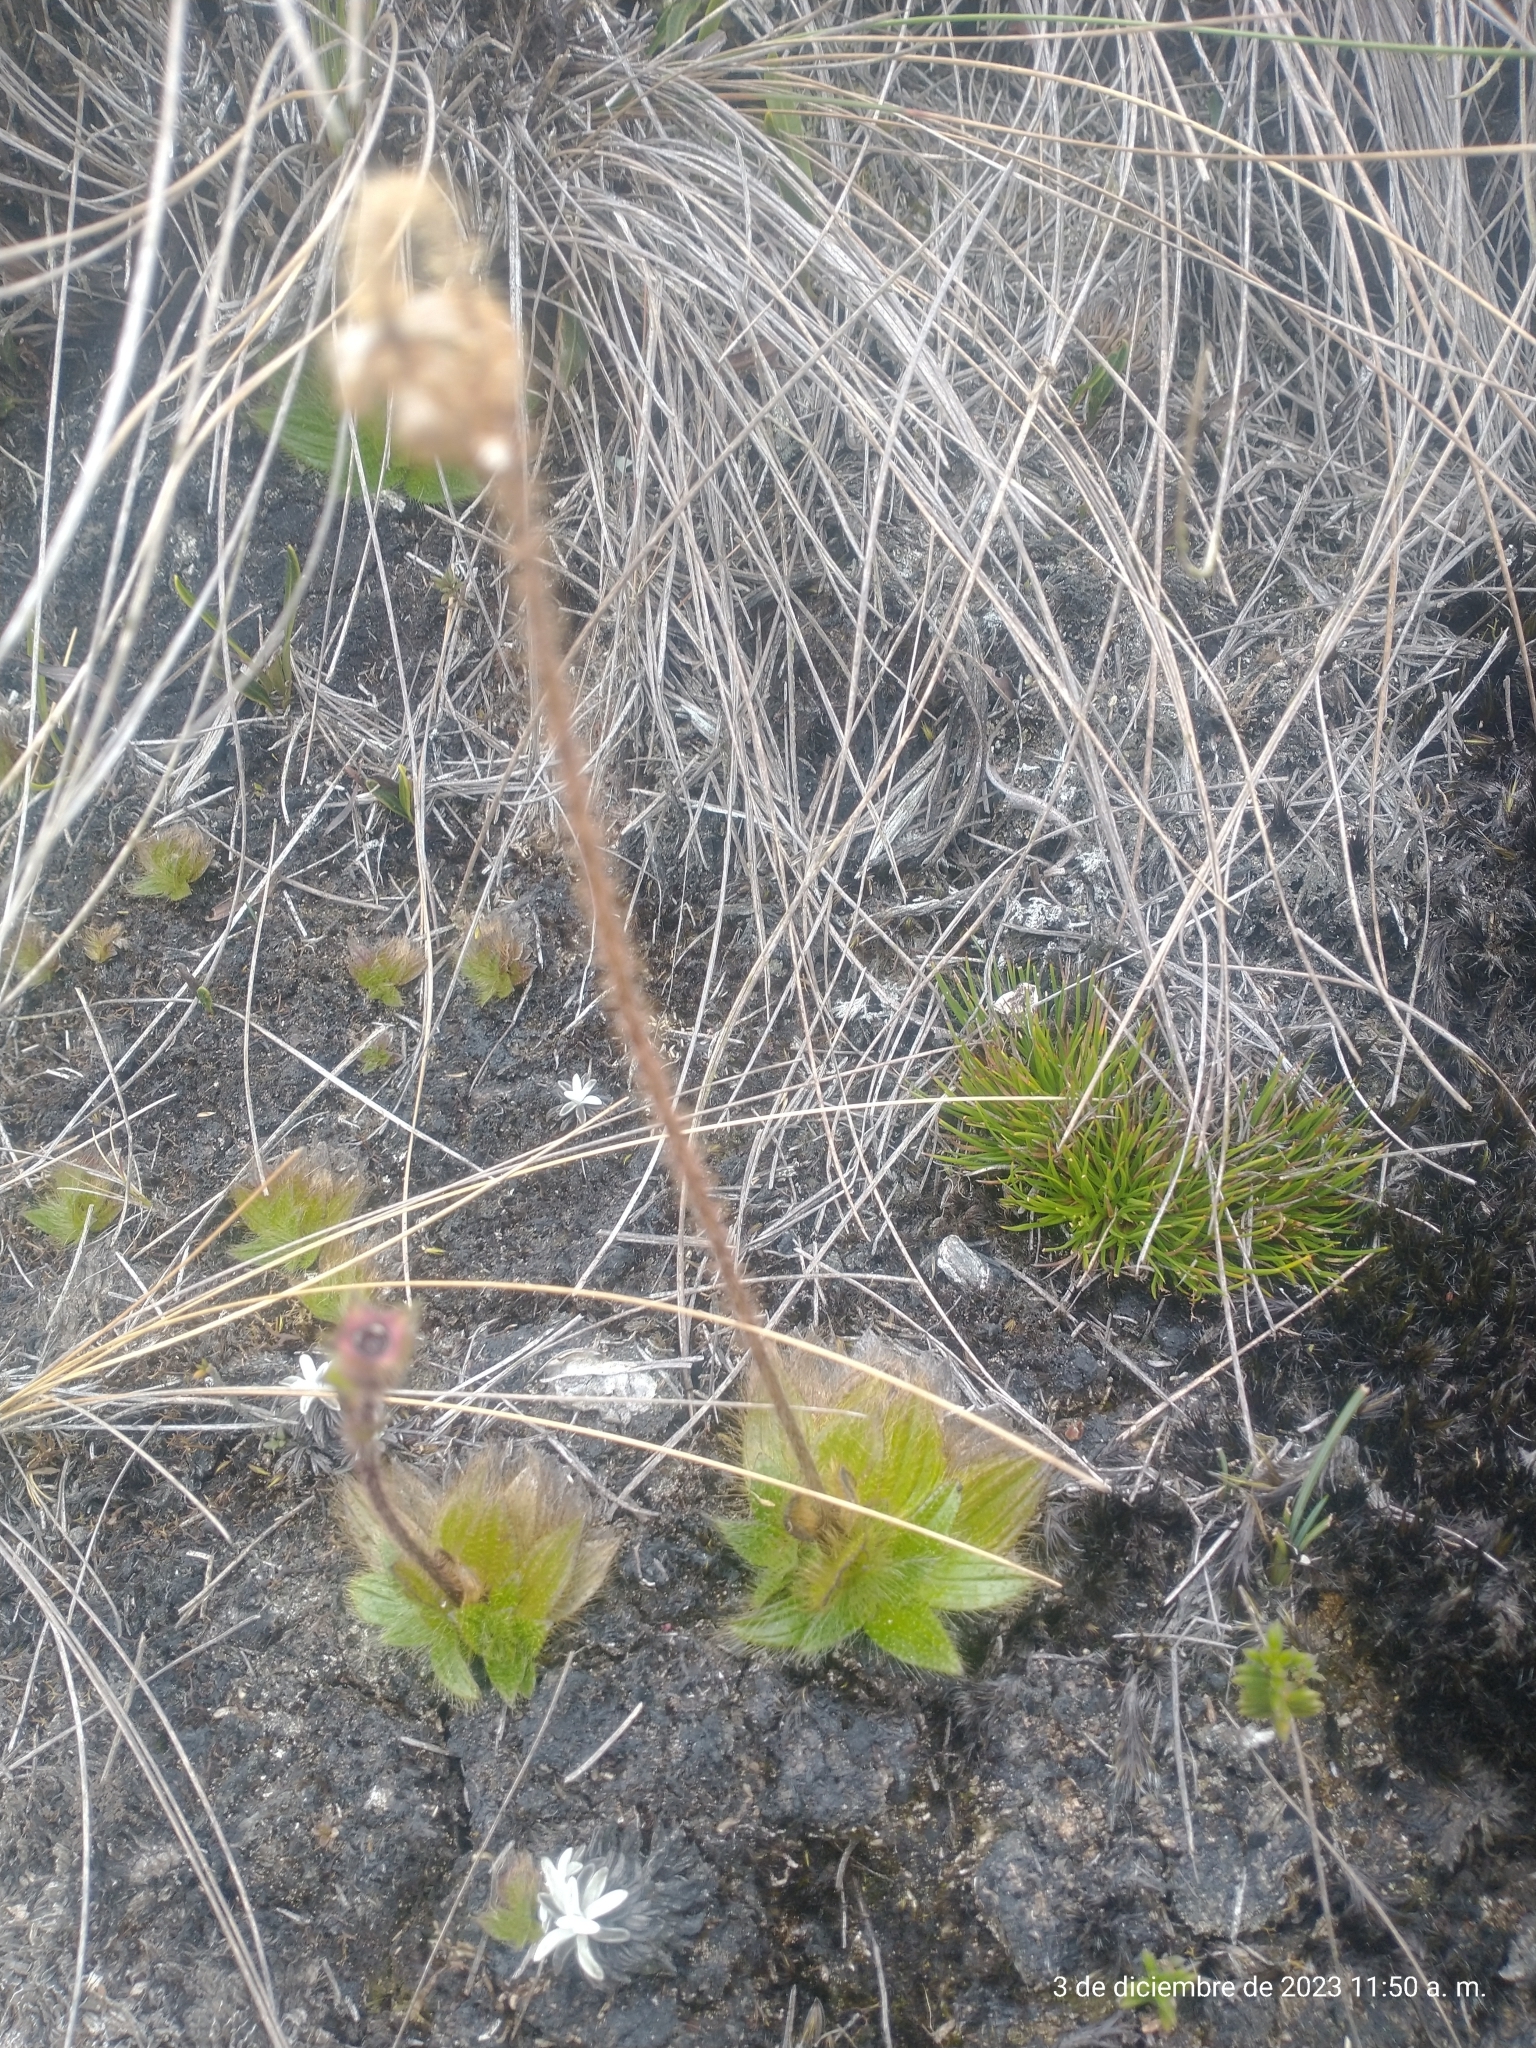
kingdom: Plantae
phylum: Tracheophyta
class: Magnoliopsida
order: Myrtales
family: Melastomataceae
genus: Castratella
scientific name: Castratella piloselloides
